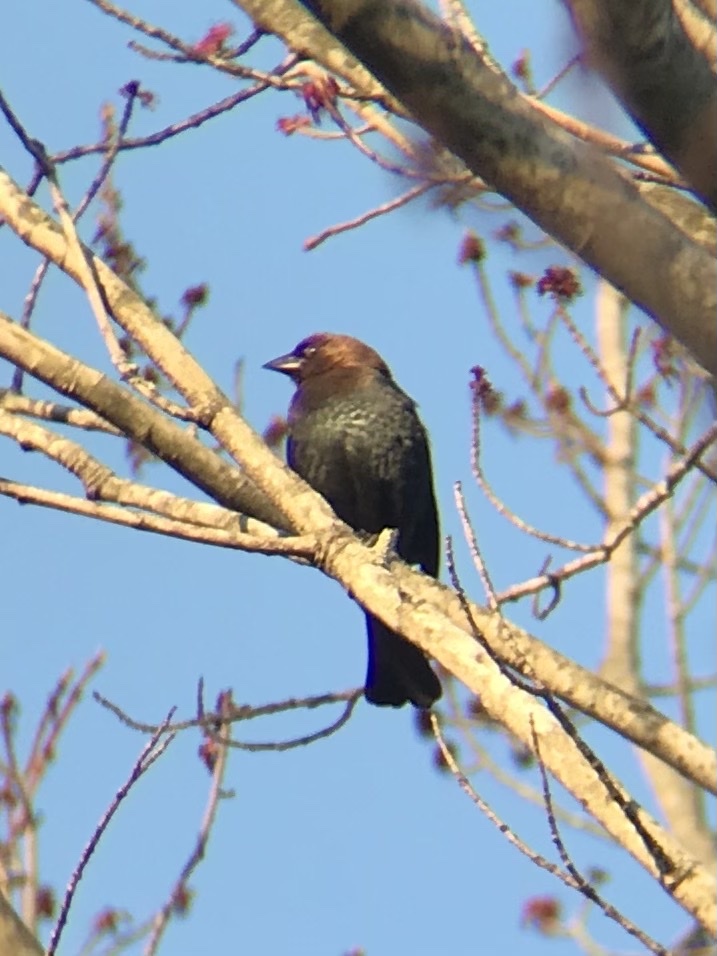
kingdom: Animalia
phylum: Chordata
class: Aves
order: Passeriformes
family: Icteridae
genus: Molothrus
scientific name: Molothrus ater
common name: Brown-headed cowbird
